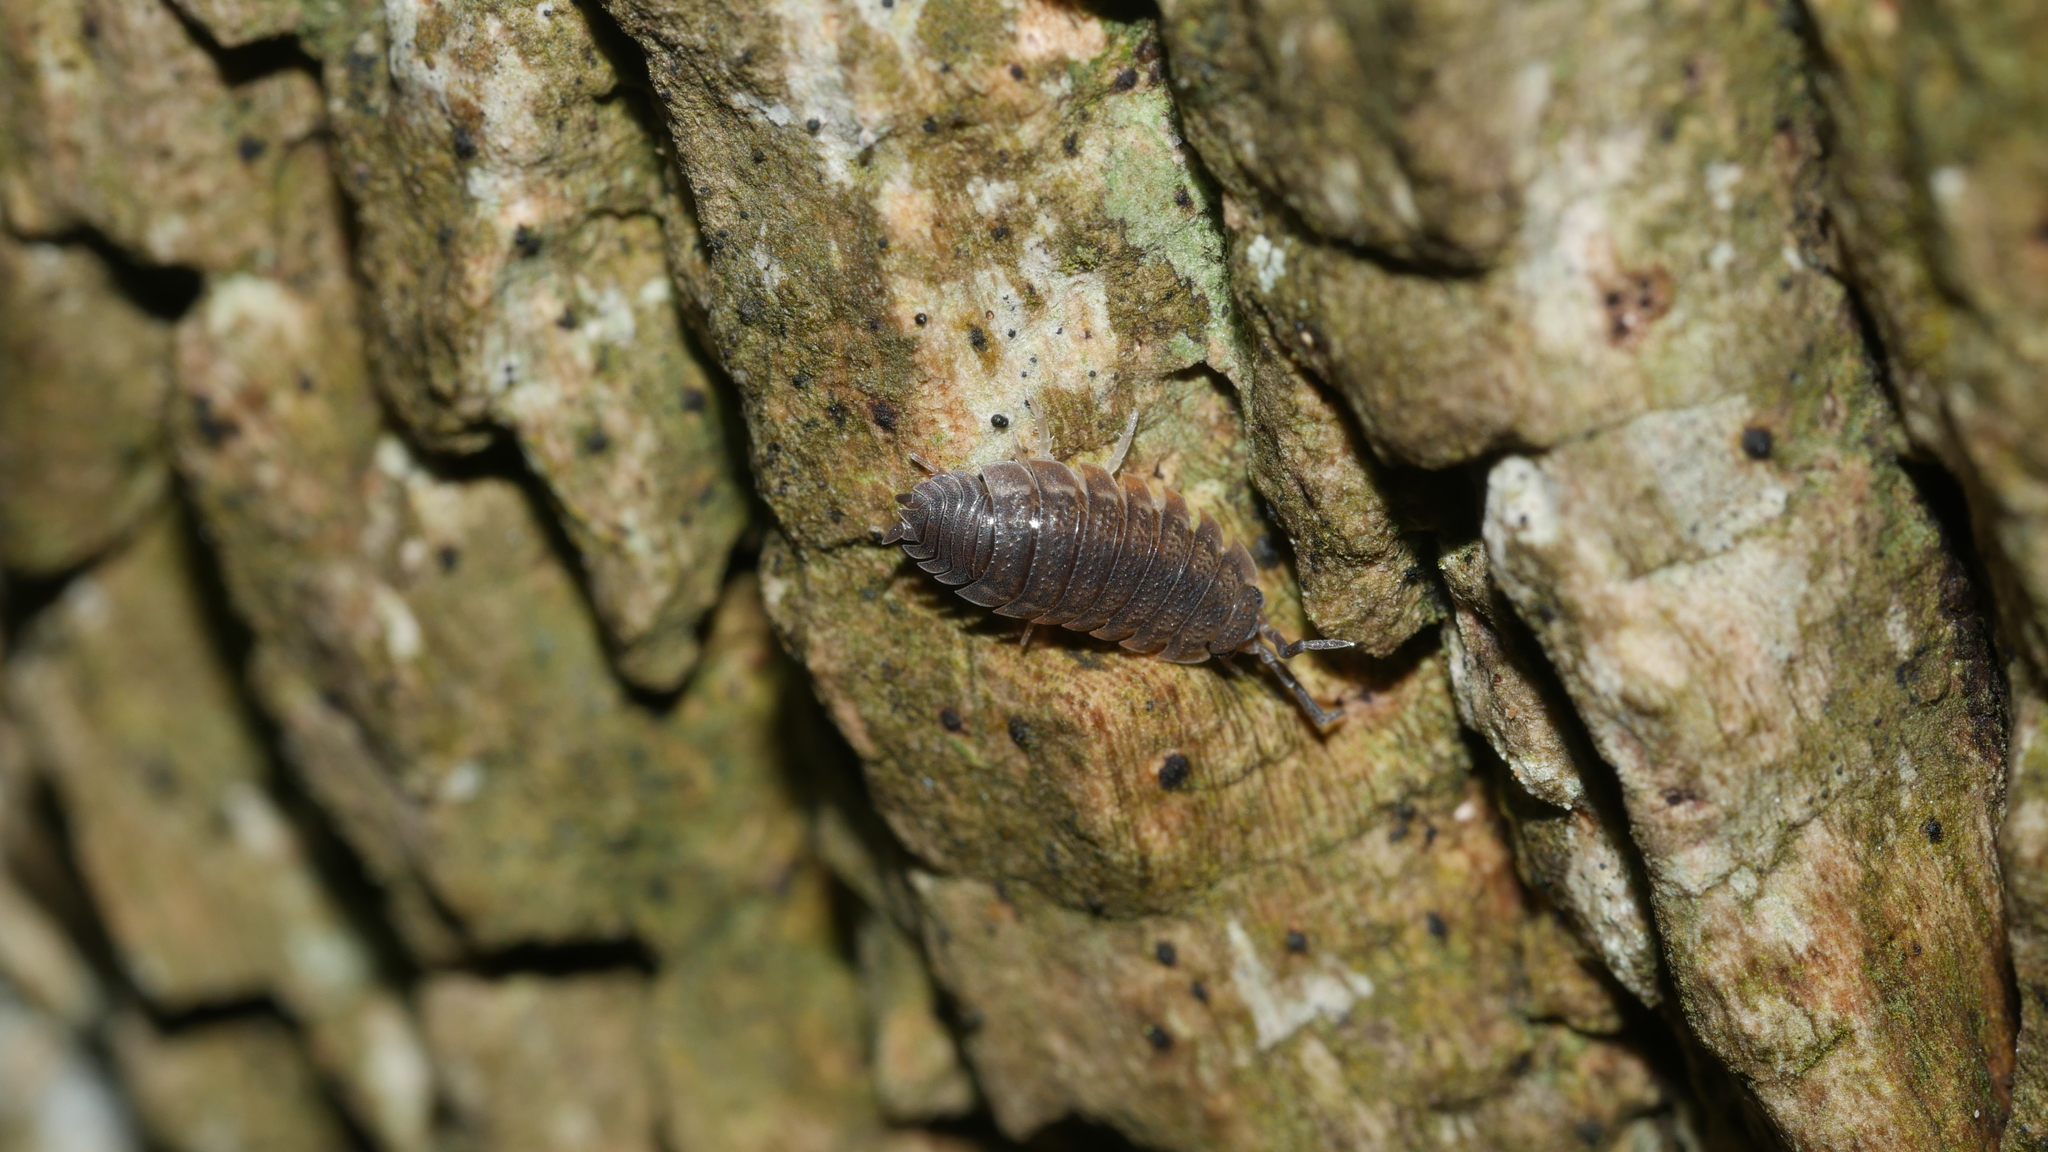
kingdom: Animalia
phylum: Arthropoda
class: Malacostraca
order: Isopoda
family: Porcellionidae
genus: Porcellio
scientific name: Porcellio scaber
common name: Common rough woodlouse
